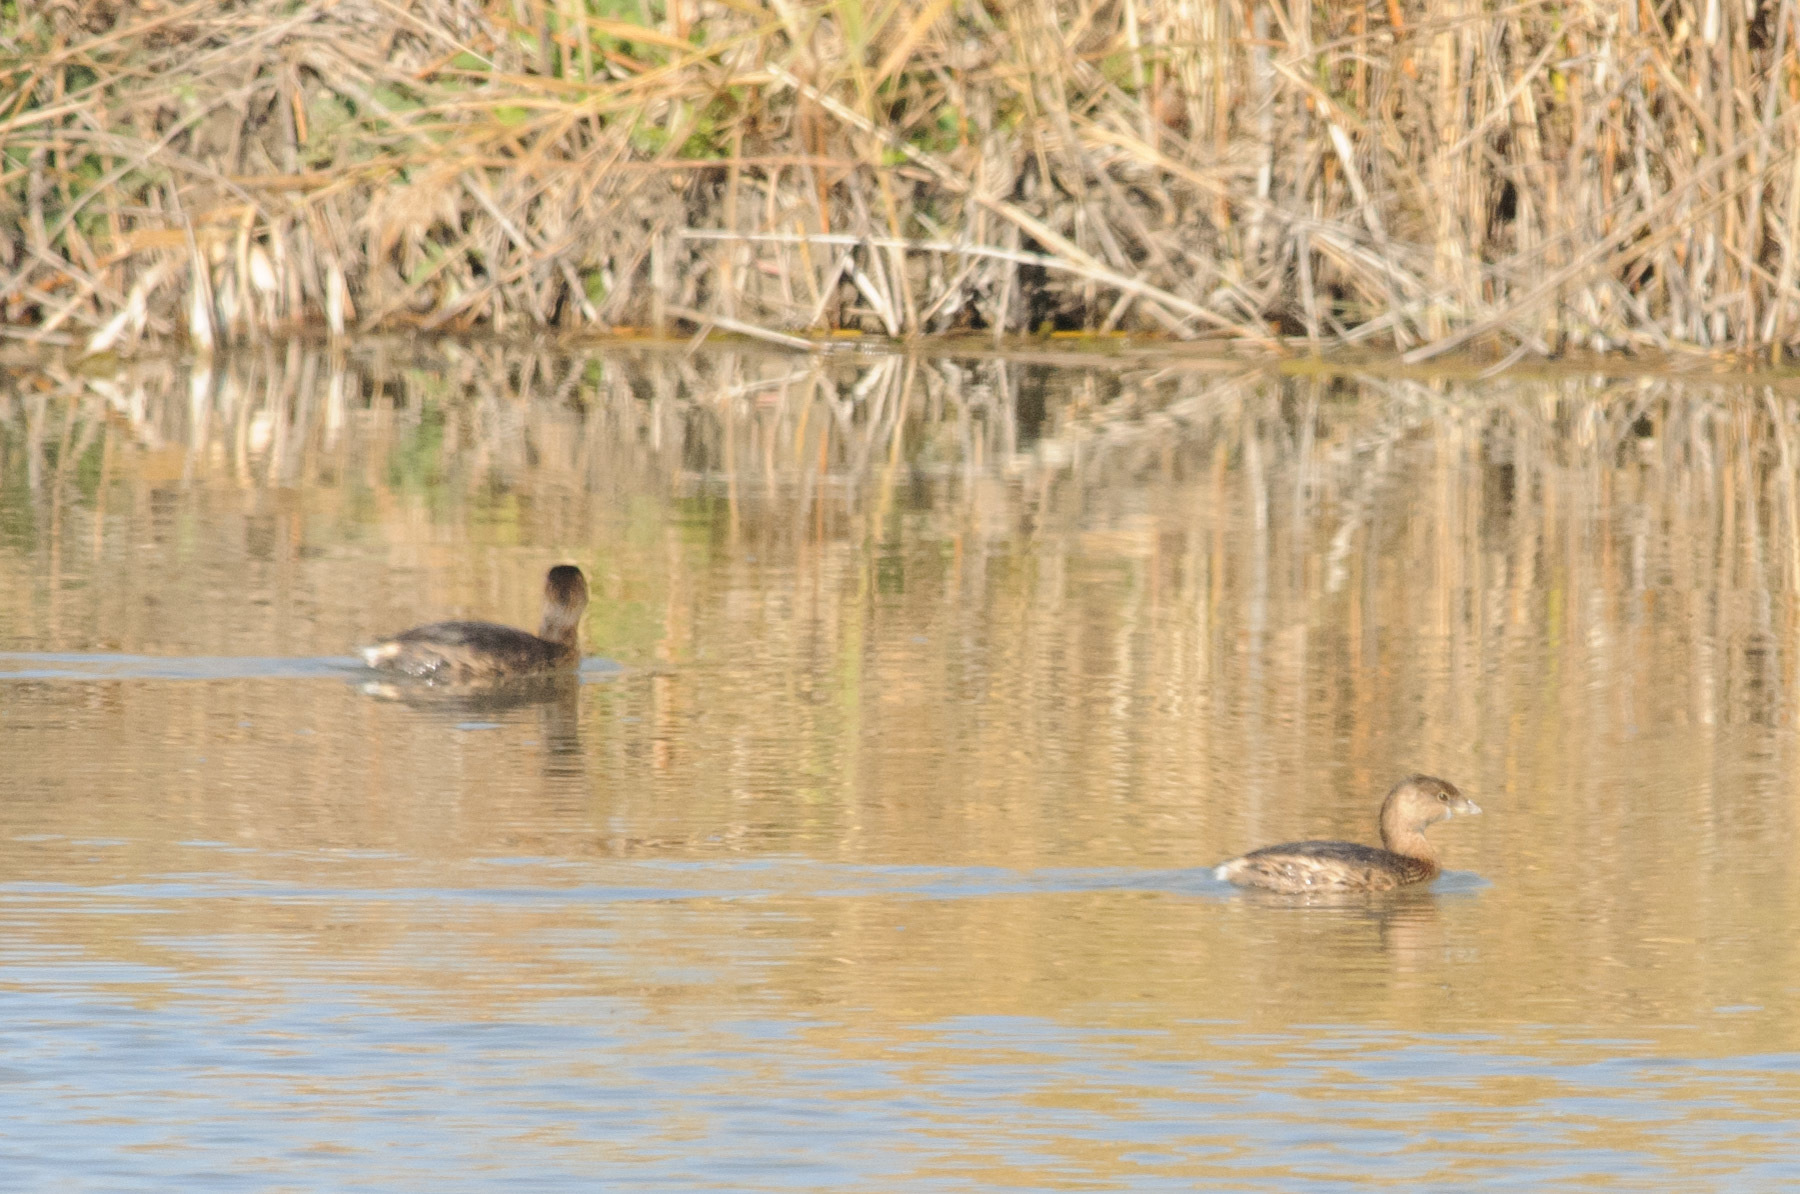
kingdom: Animalia
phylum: Chordata
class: Aves
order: Podicipediformes
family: Podicipedidae
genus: Podilymbus
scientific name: Podilymbus podiceps
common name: Pied-billed grebe
